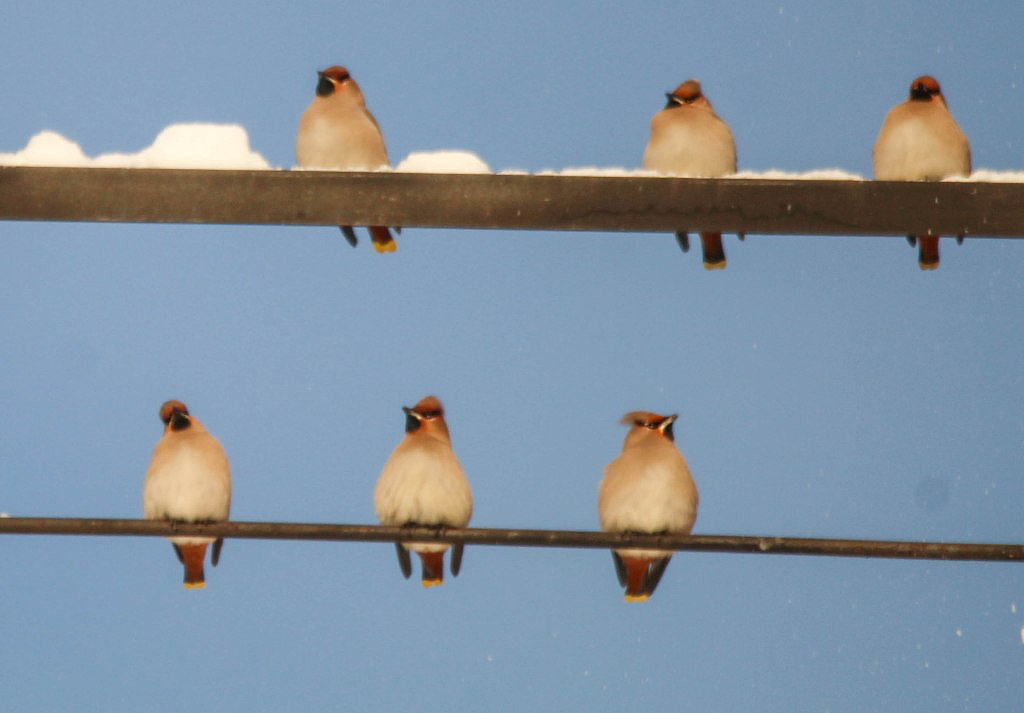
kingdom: Animalia
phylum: Chordata
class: Aves
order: Passeriformes
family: Bombycillidae
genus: Bombycilla
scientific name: Bombycilla garrulus
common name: Bohemian waxwing
